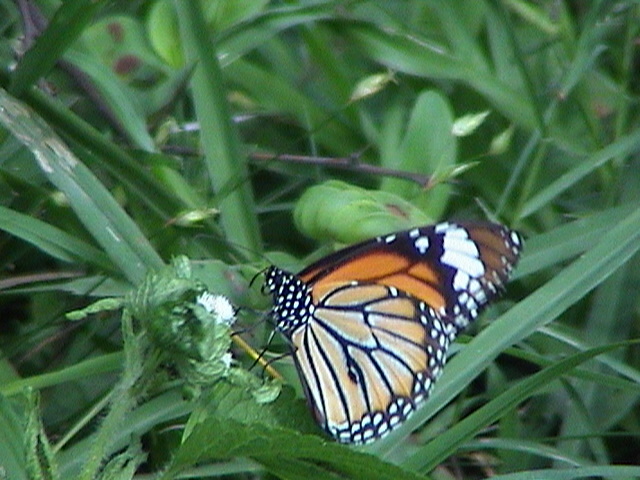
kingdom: Animalia
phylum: Arthropoda
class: Insecta
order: Lepidoptera
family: Nymphalidae
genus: Danaus
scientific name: Danaus genutia
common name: Common tiger butterfly
